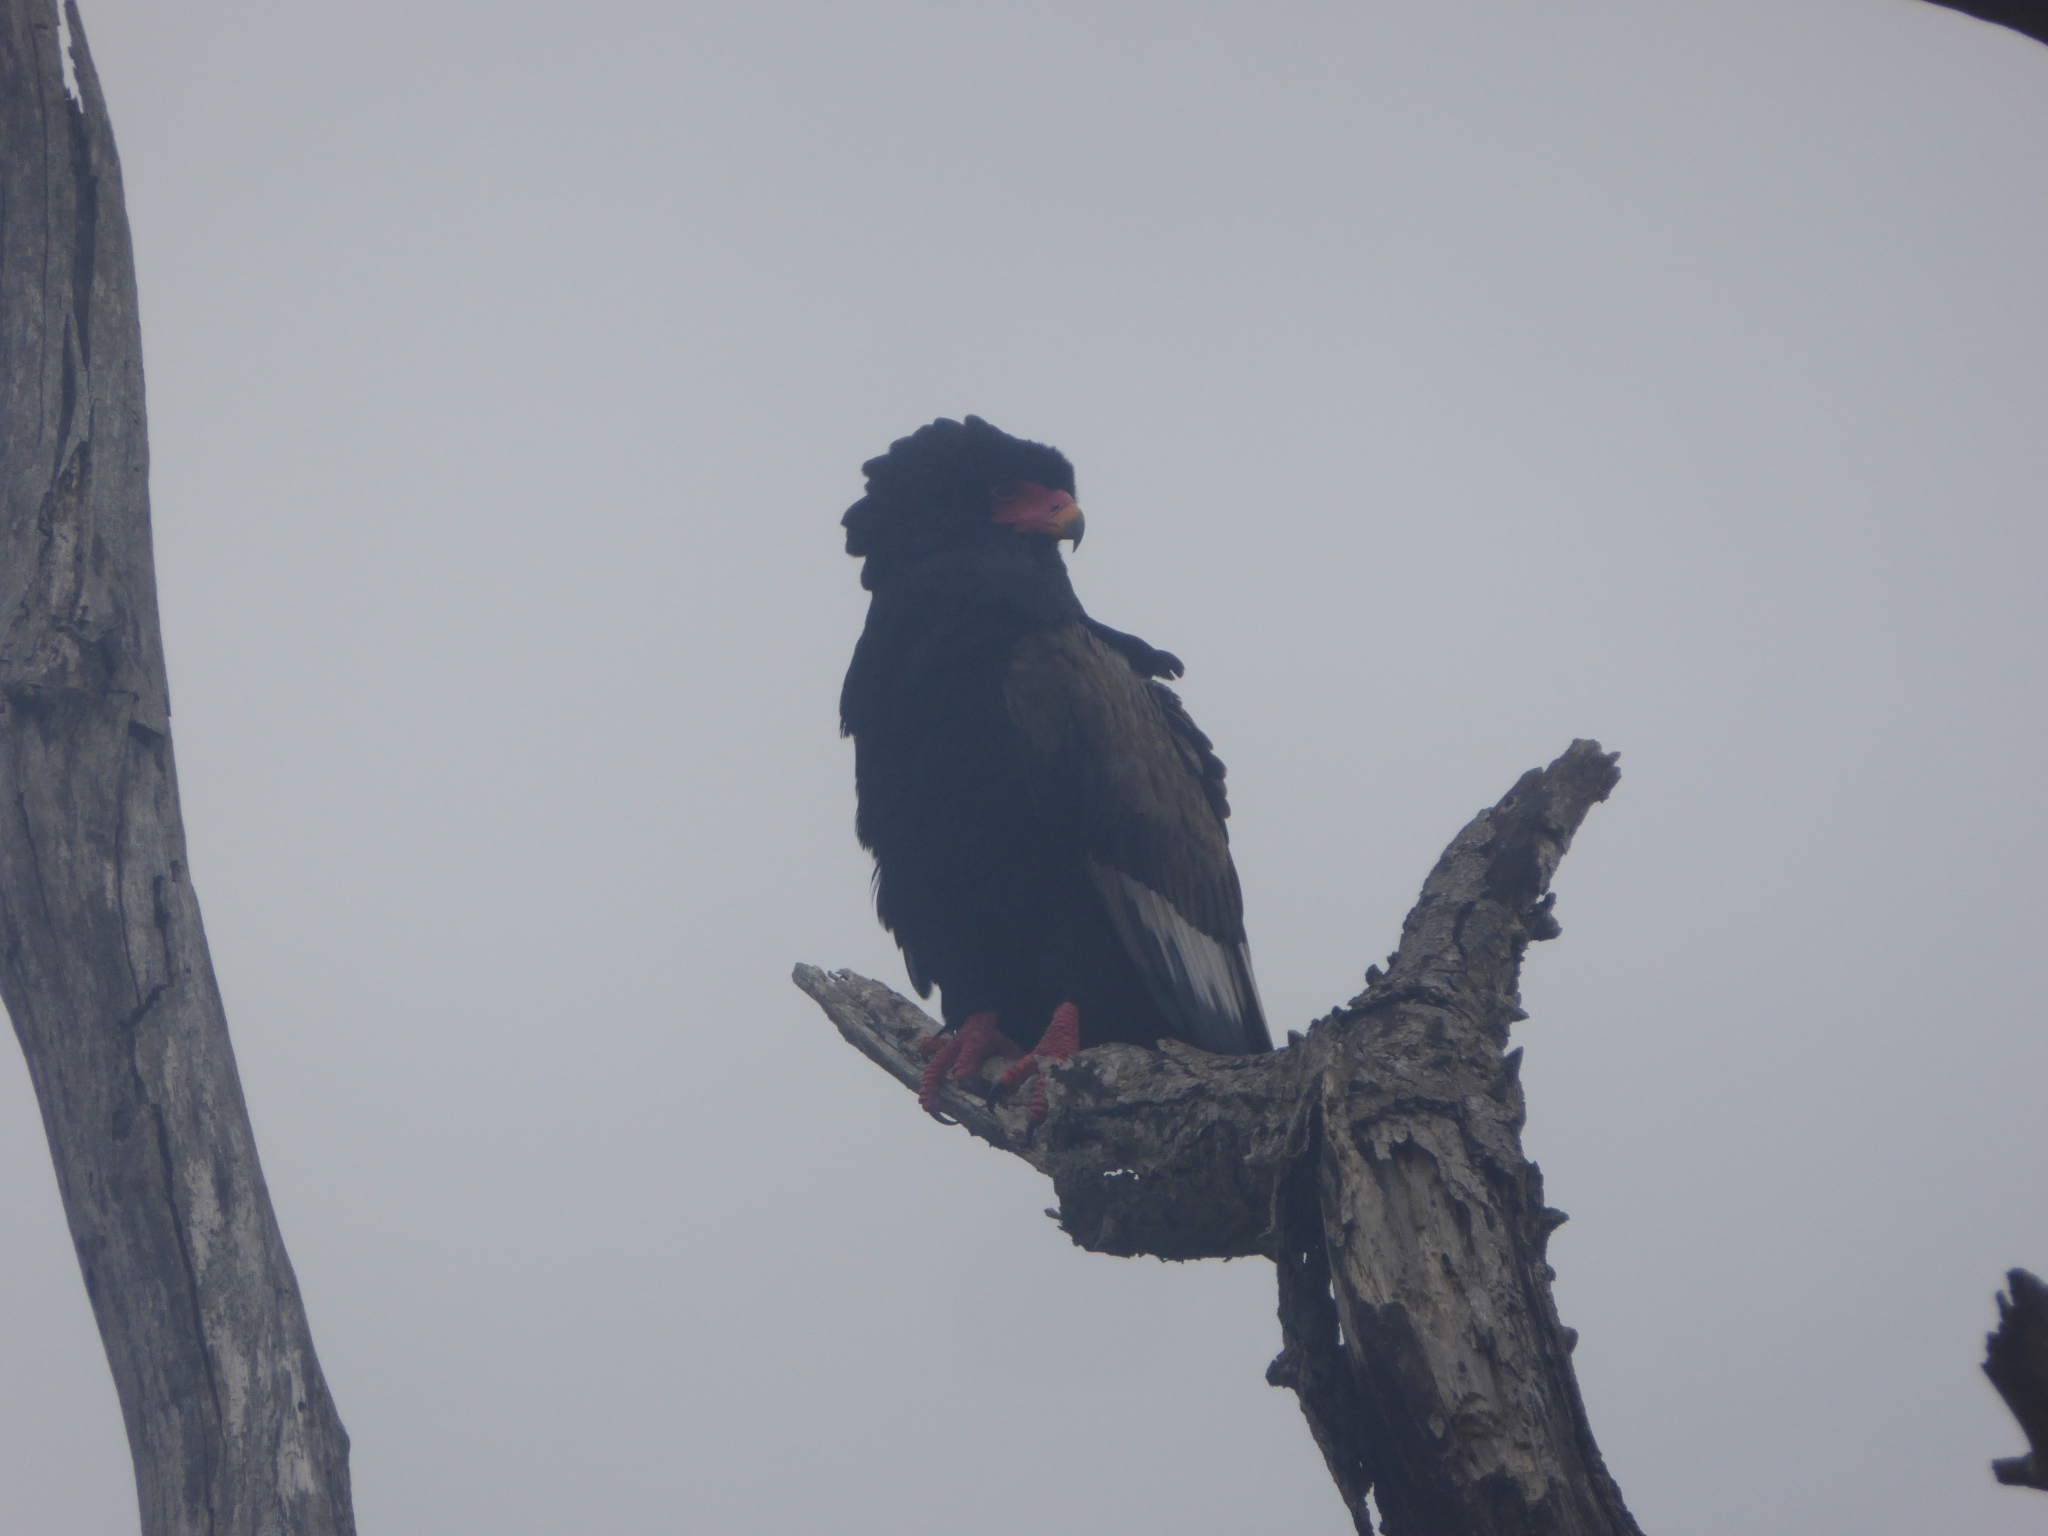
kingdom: Animalia
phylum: Chordata
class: Aves
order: Accipitriformes
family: Accipitridae
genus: Terathopius
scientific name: Terathopius ecaudatus
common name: Bateleur
